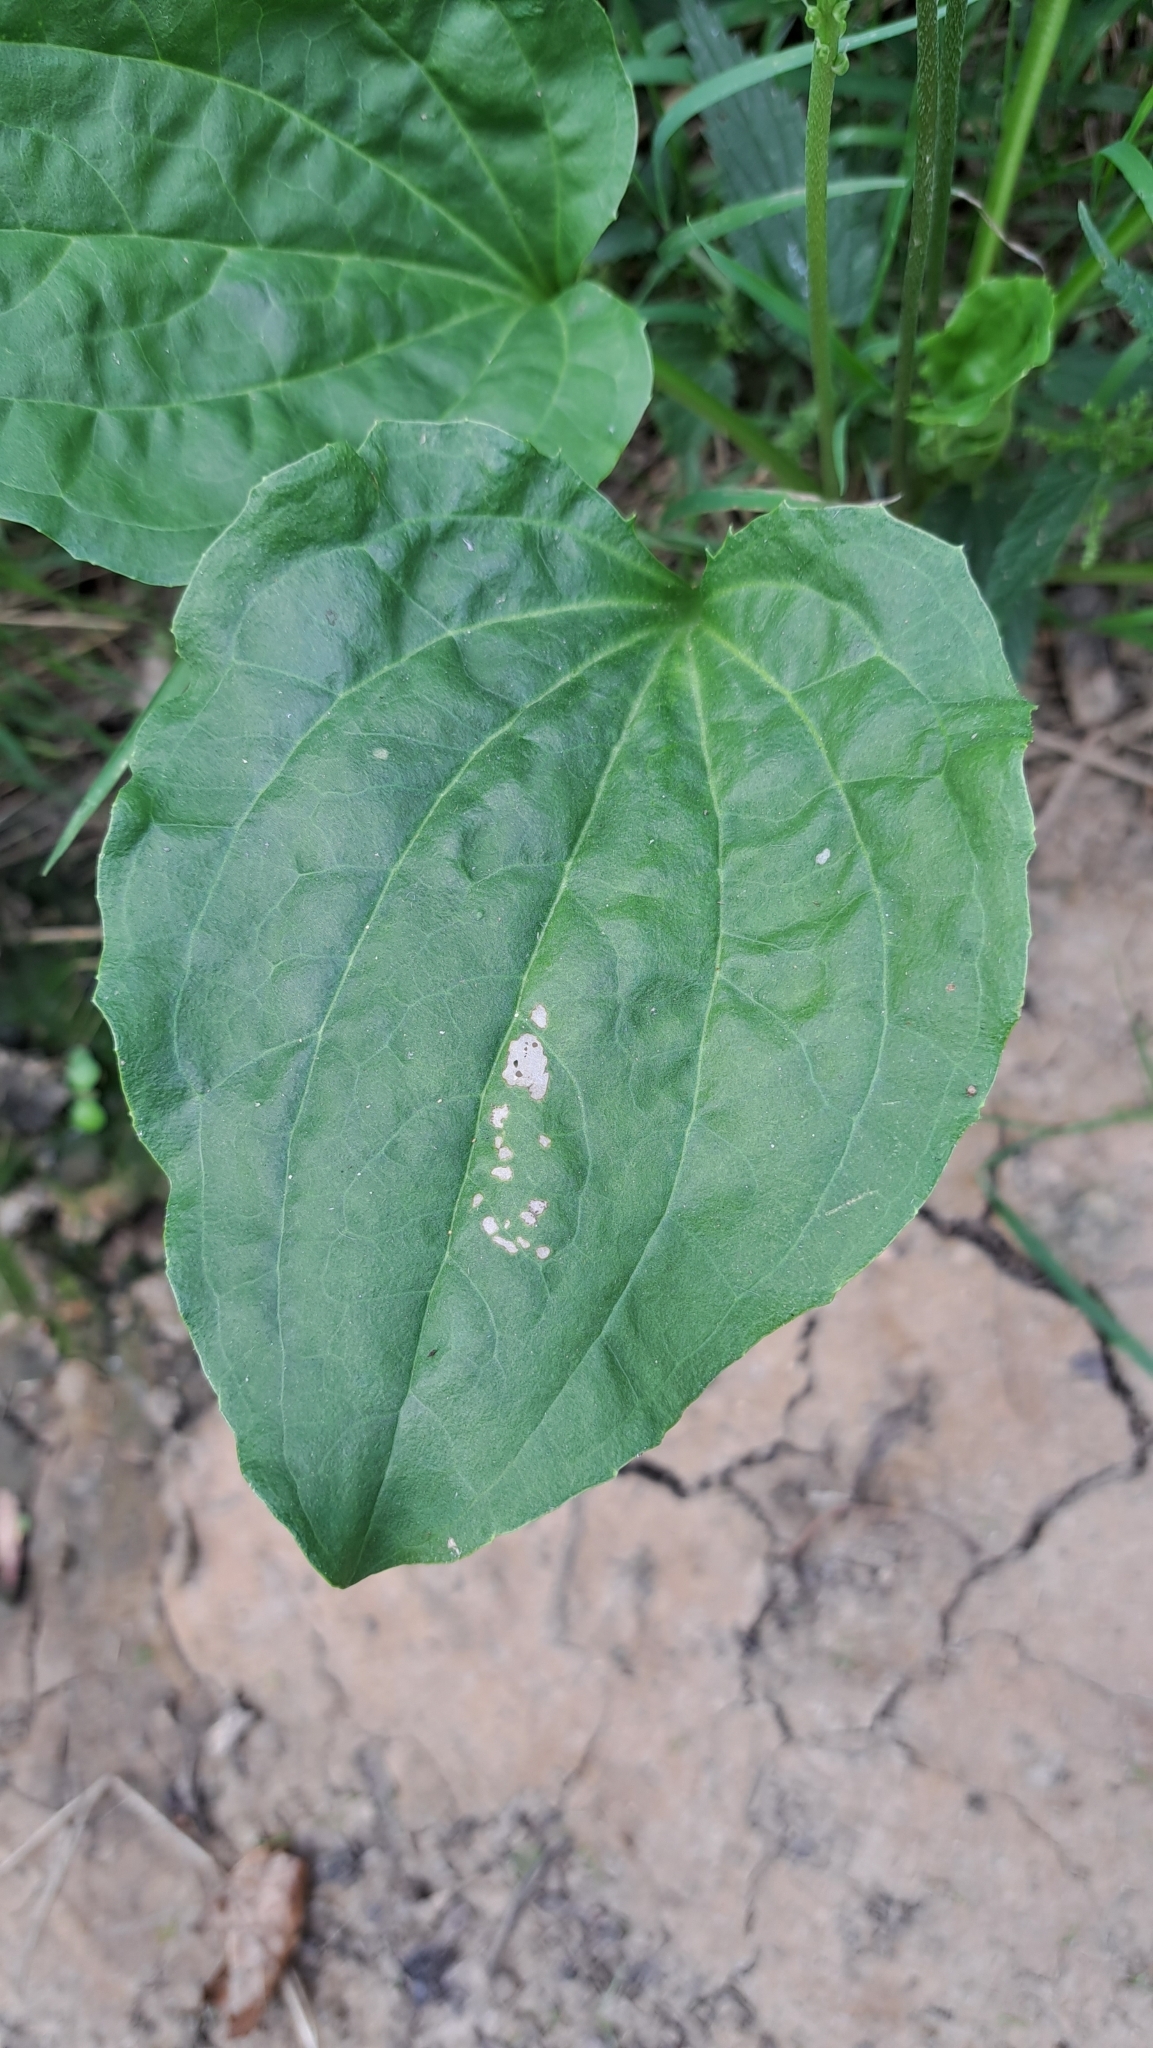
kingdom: Plantae
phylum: Tracheophyta
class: Magnoliopsida
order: Lamiales
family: Plantaginaceae
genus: Plantago
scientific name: Plantago major
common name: Common plantain
